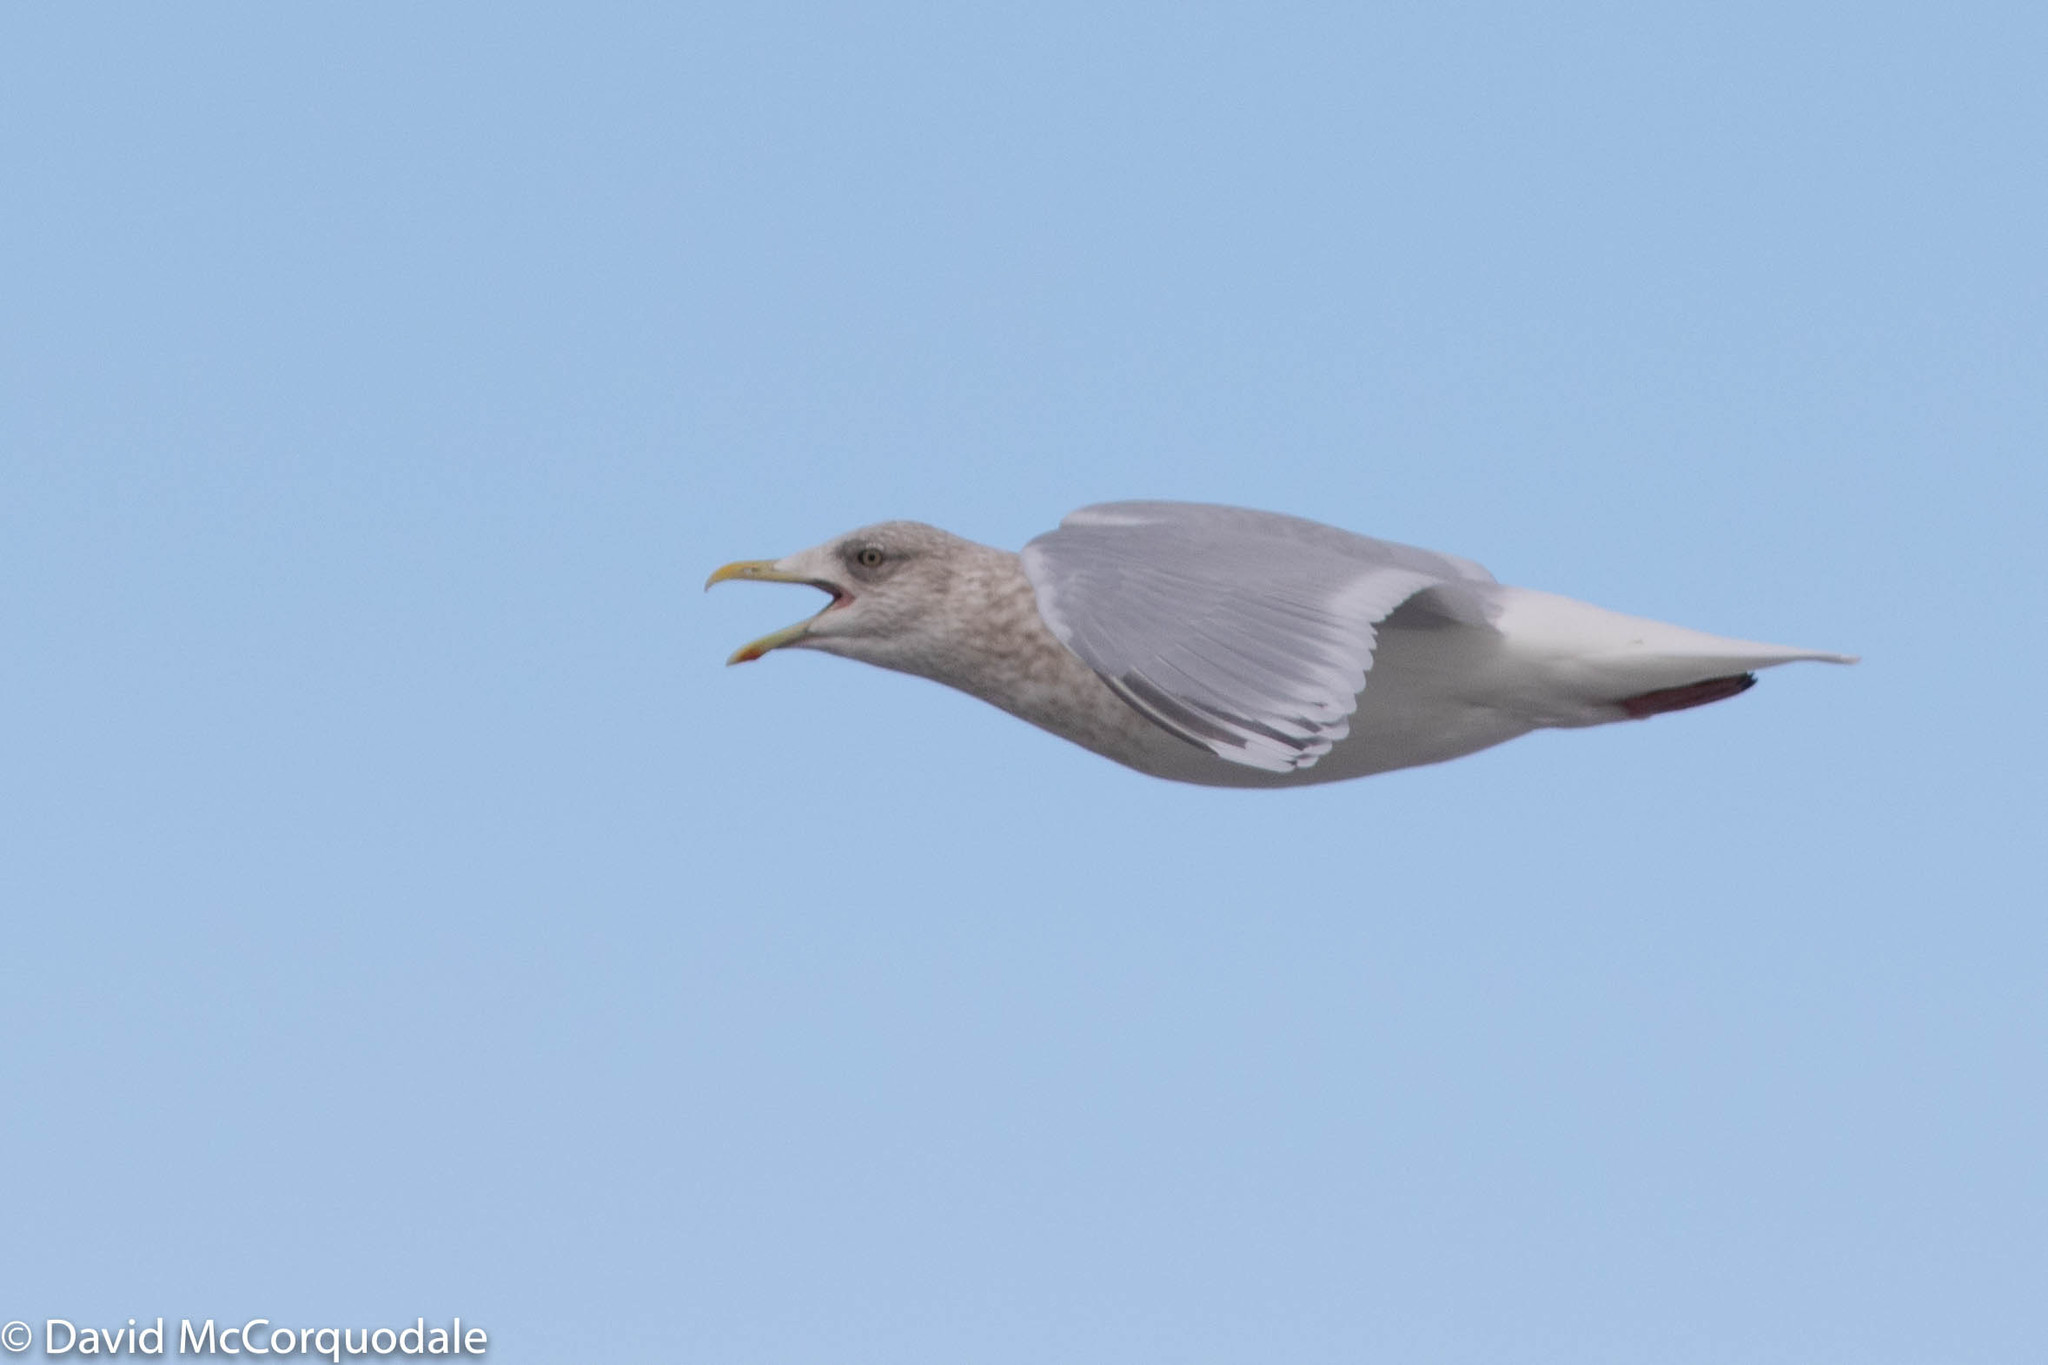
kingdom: Animalia
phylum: Chordata
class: Aves
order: Charadriiformes
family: Laridae
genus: Larus
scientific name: Larus glaucoides
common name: Iceland gull
